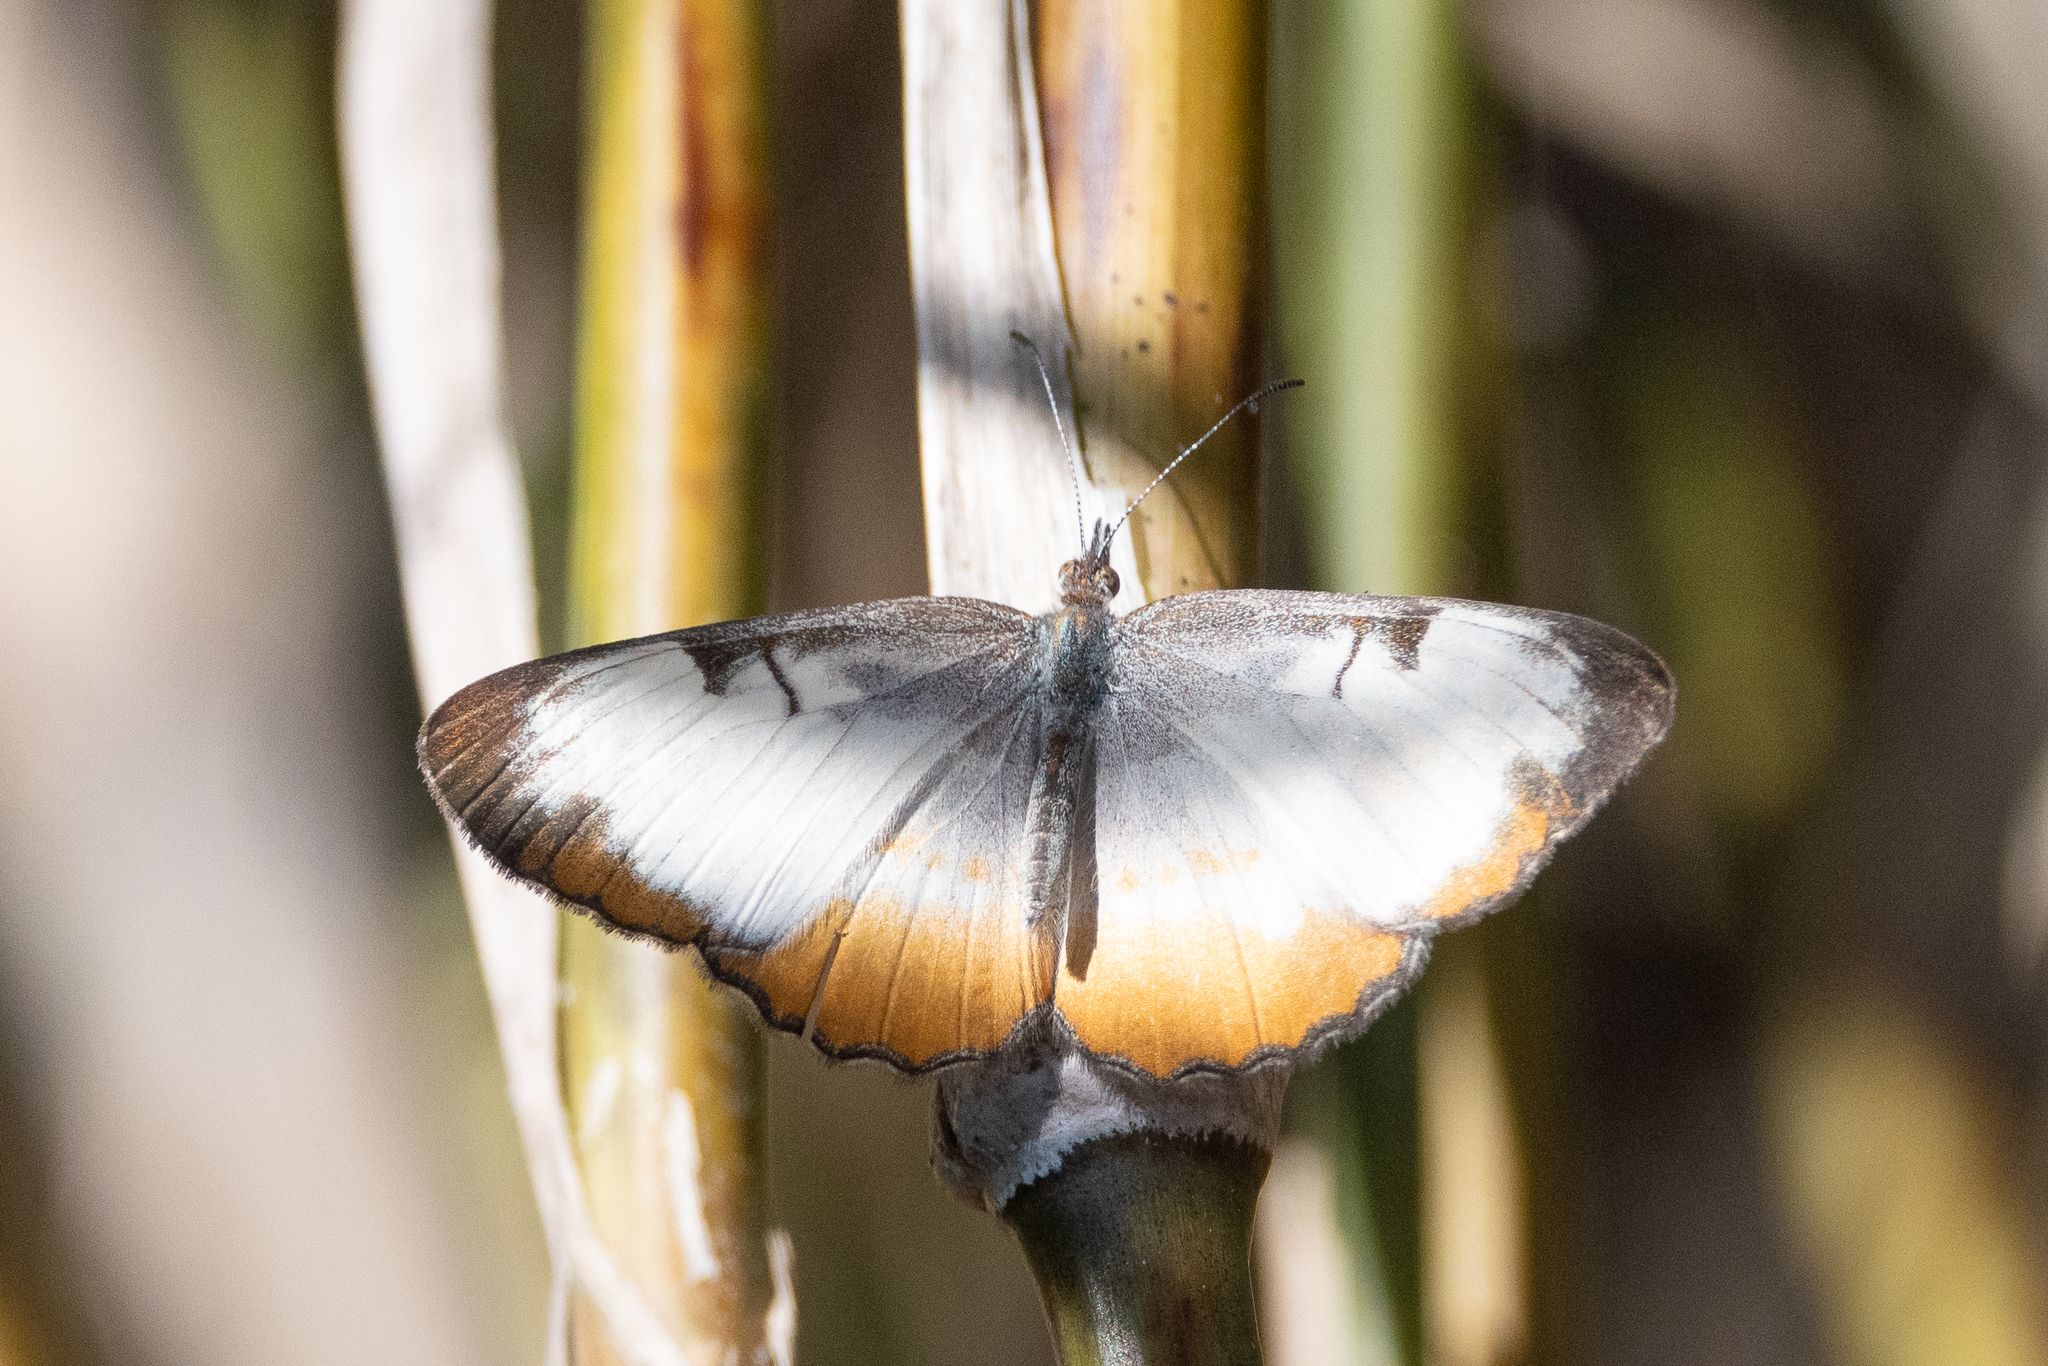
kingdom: Animalia
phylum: Arthropoda
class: Insecta
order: Lepidoptera
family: Nymphalidae
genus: Mestra
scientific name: Mestra amymone
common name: Common mestra
